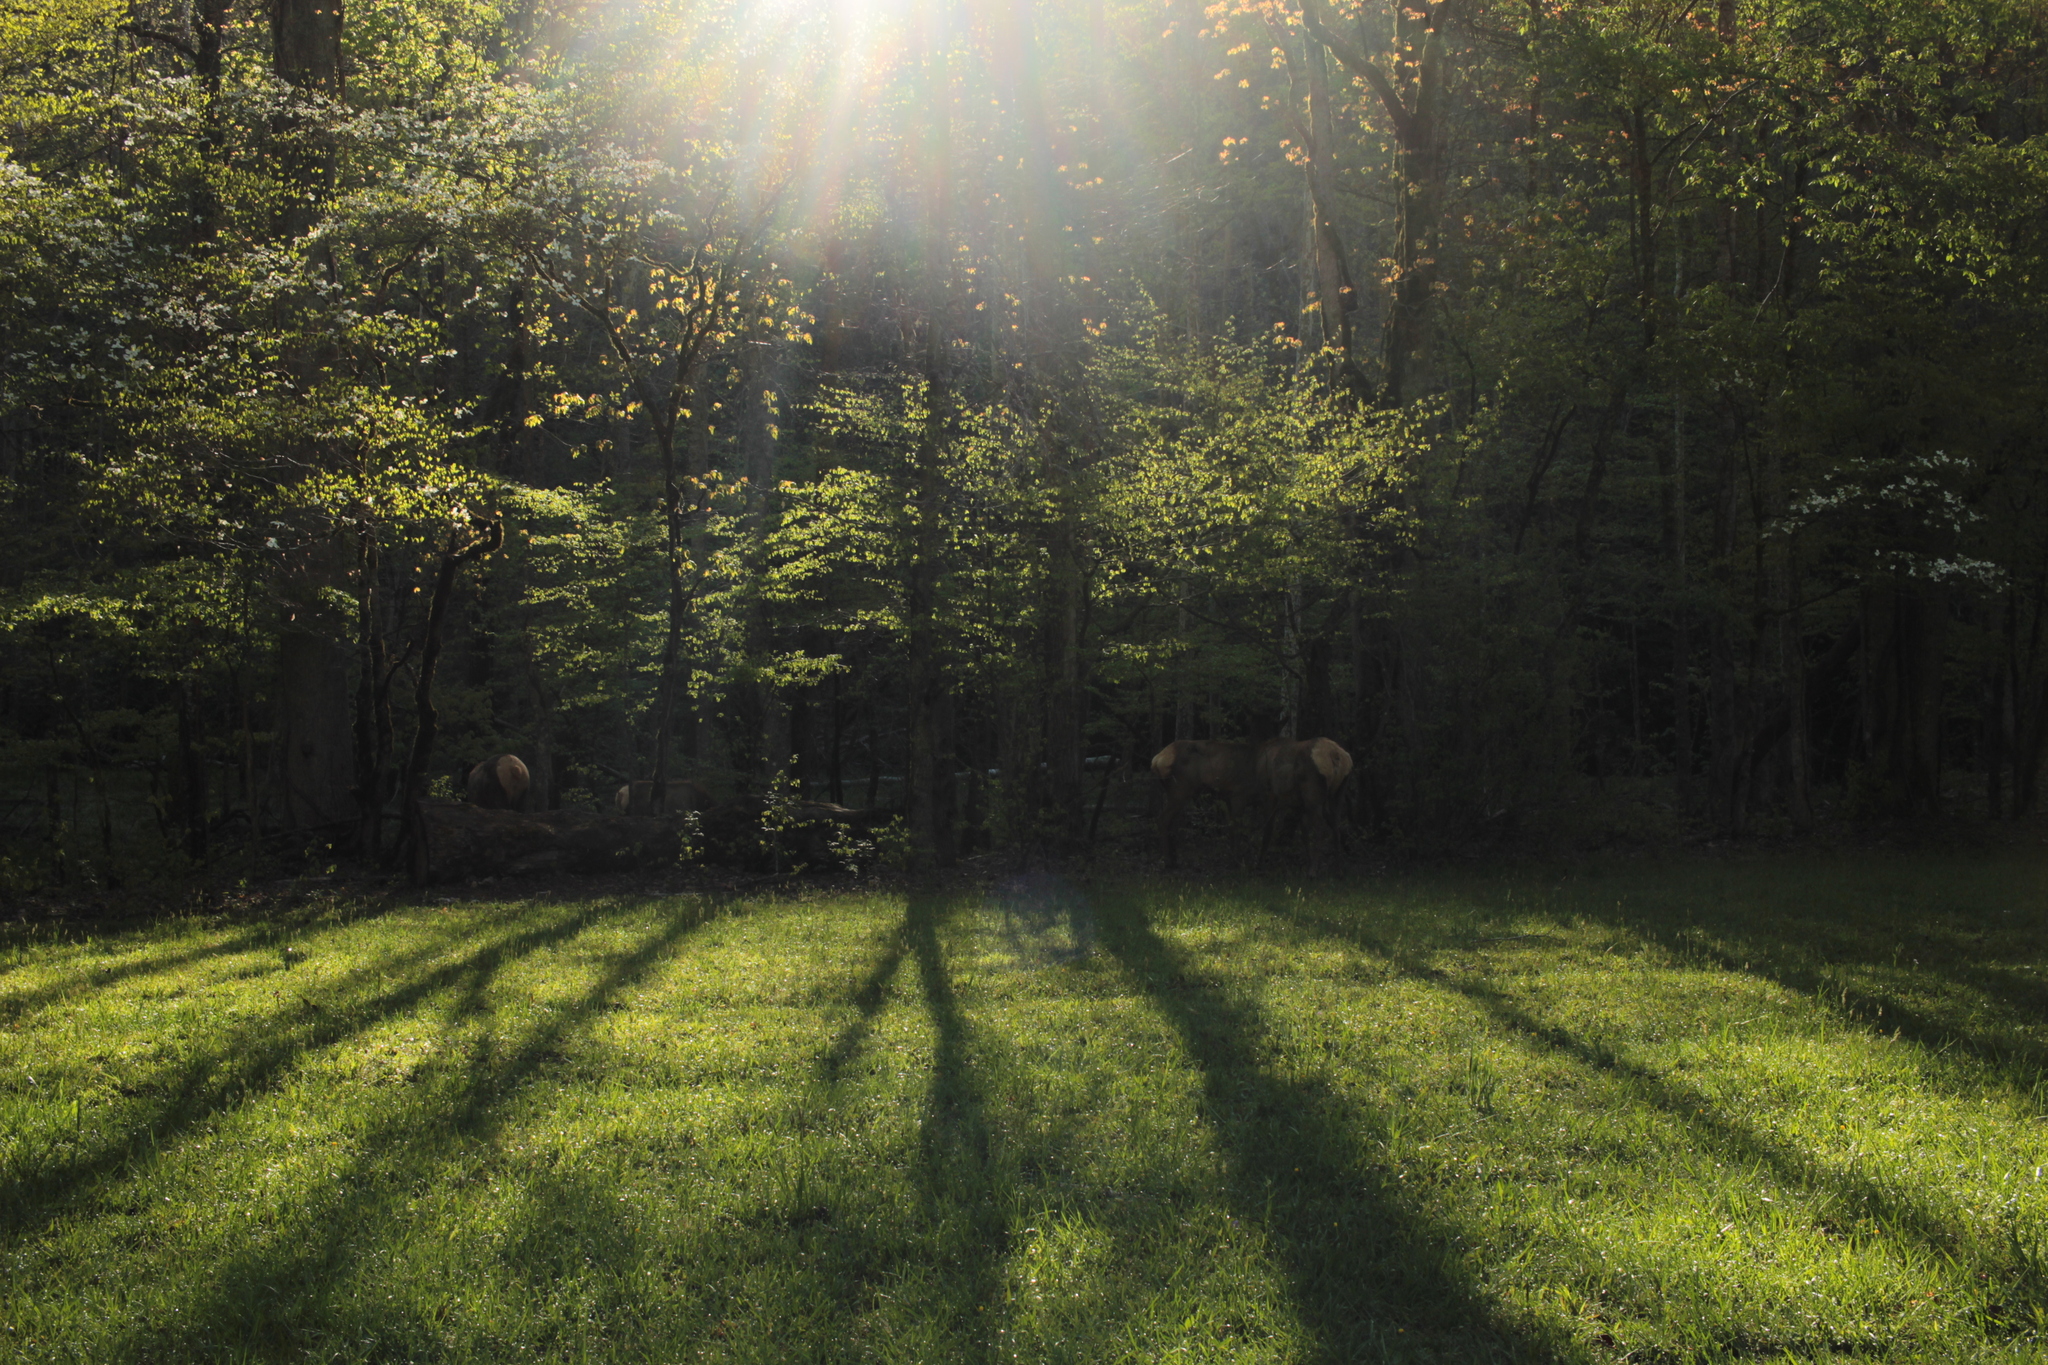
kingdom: Animalia
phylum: Chordata
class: Mammalia
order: Artiodactyla
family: Cervidae
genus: Cervus
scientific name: Cervus elaphus
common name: Red deer
